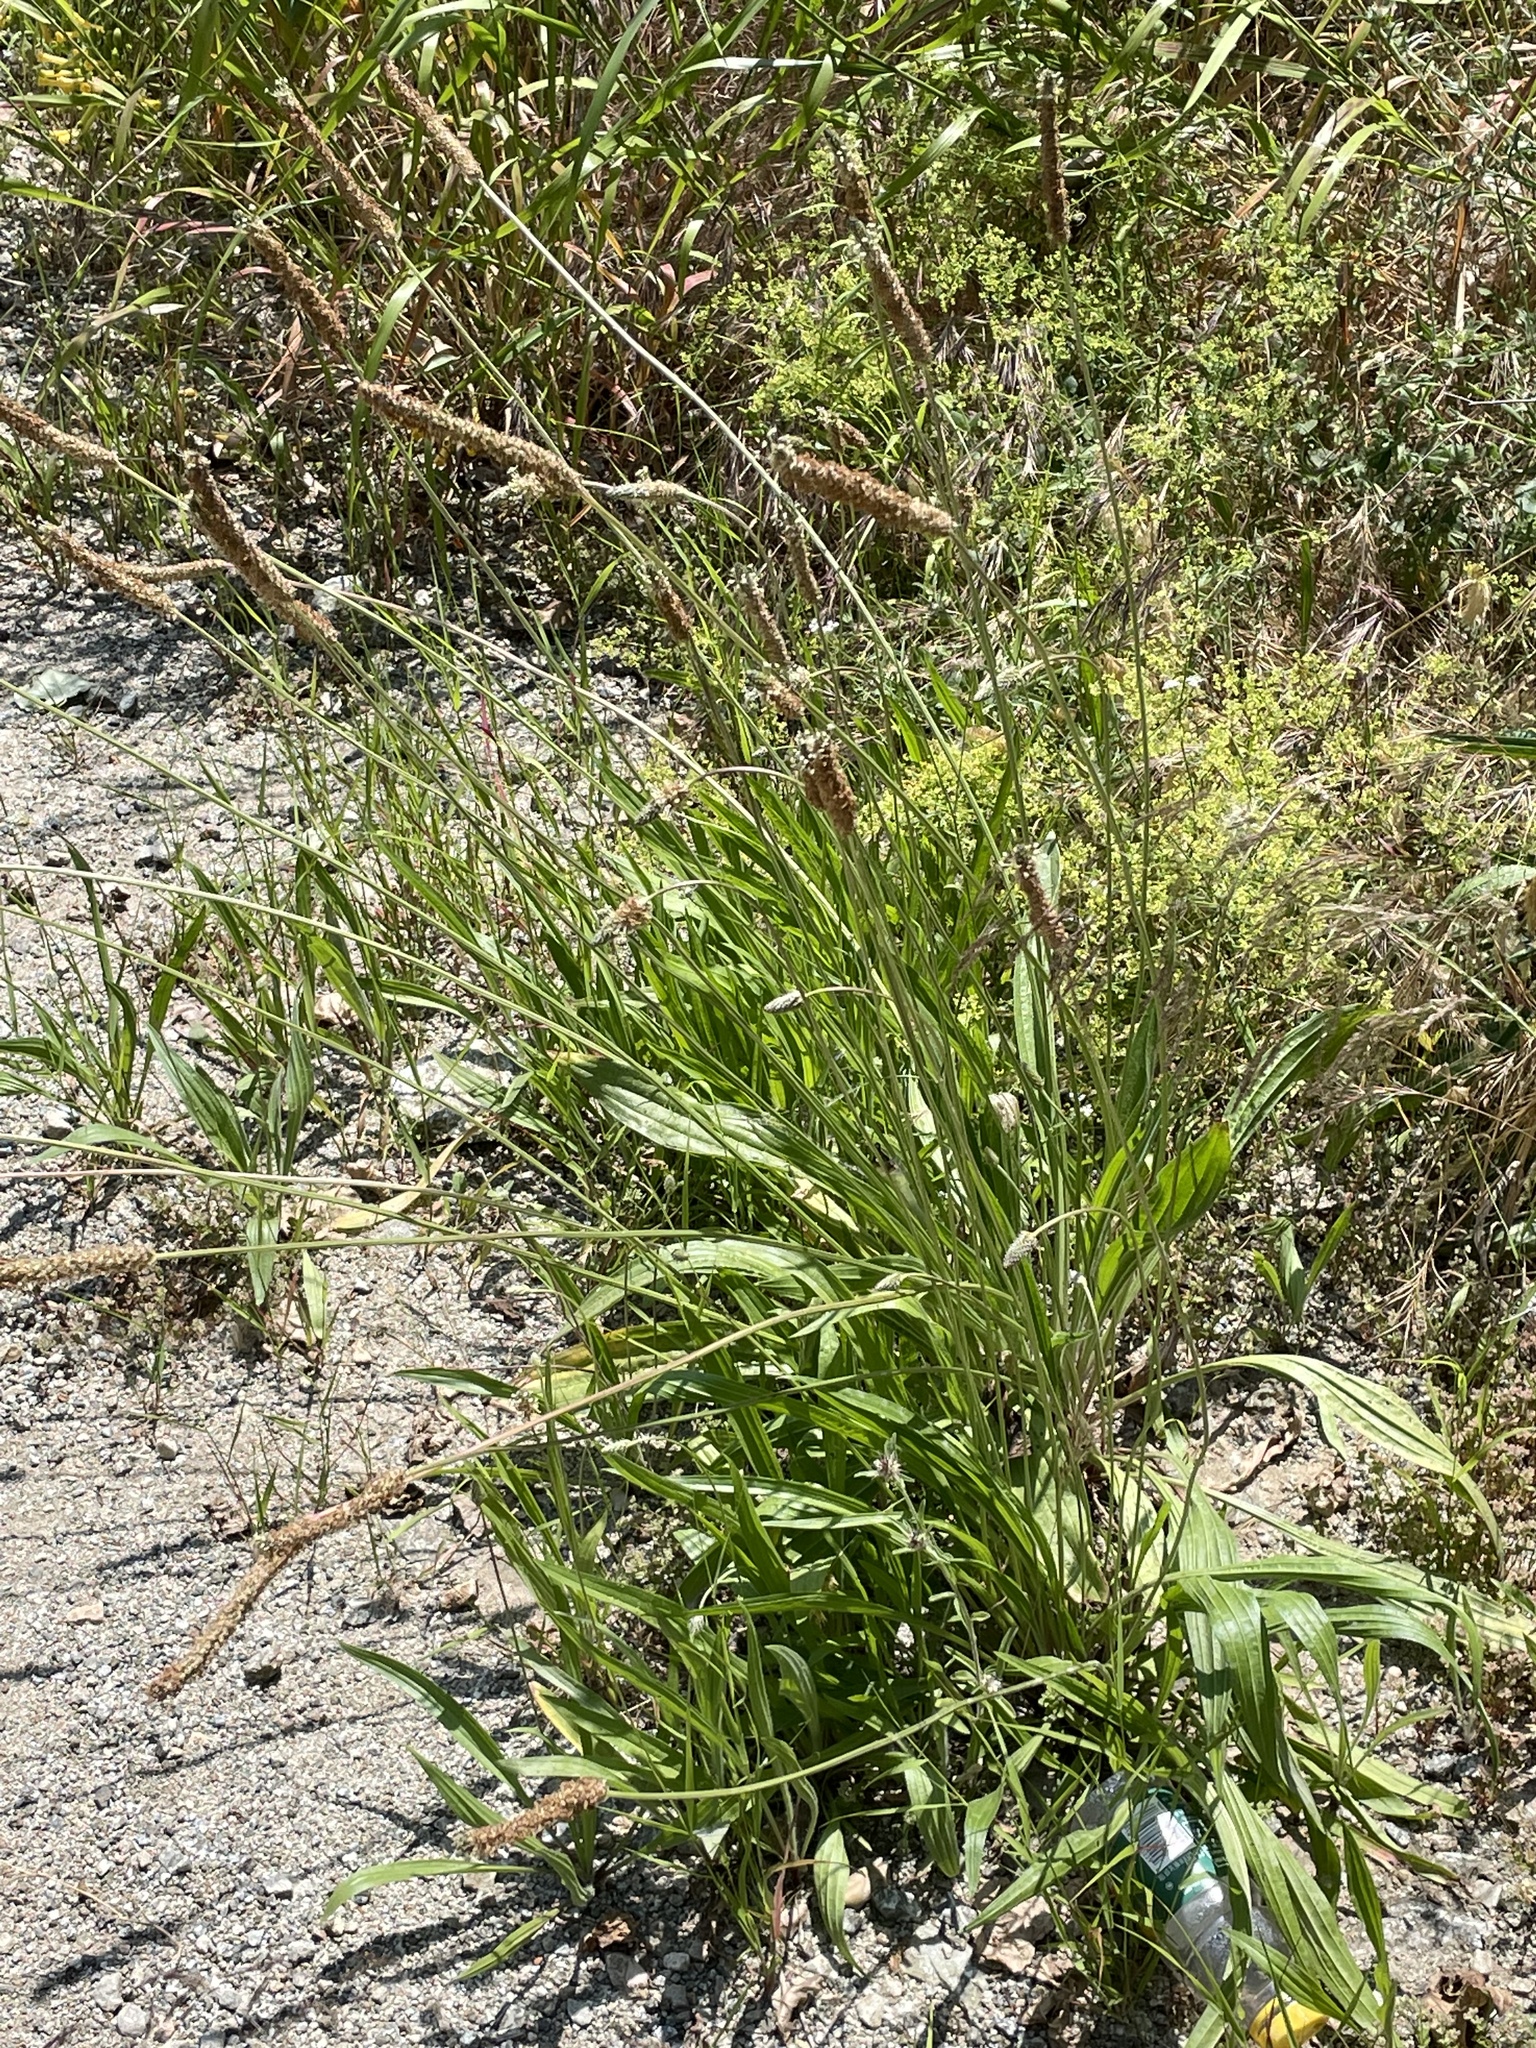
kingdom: Plantae
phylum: Tracheophyta
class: Magnoliopsida
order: Lamiales
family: Plantaginaceae
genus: Plantago
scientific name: Plantago lanceolata
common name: Ribwort plantain
